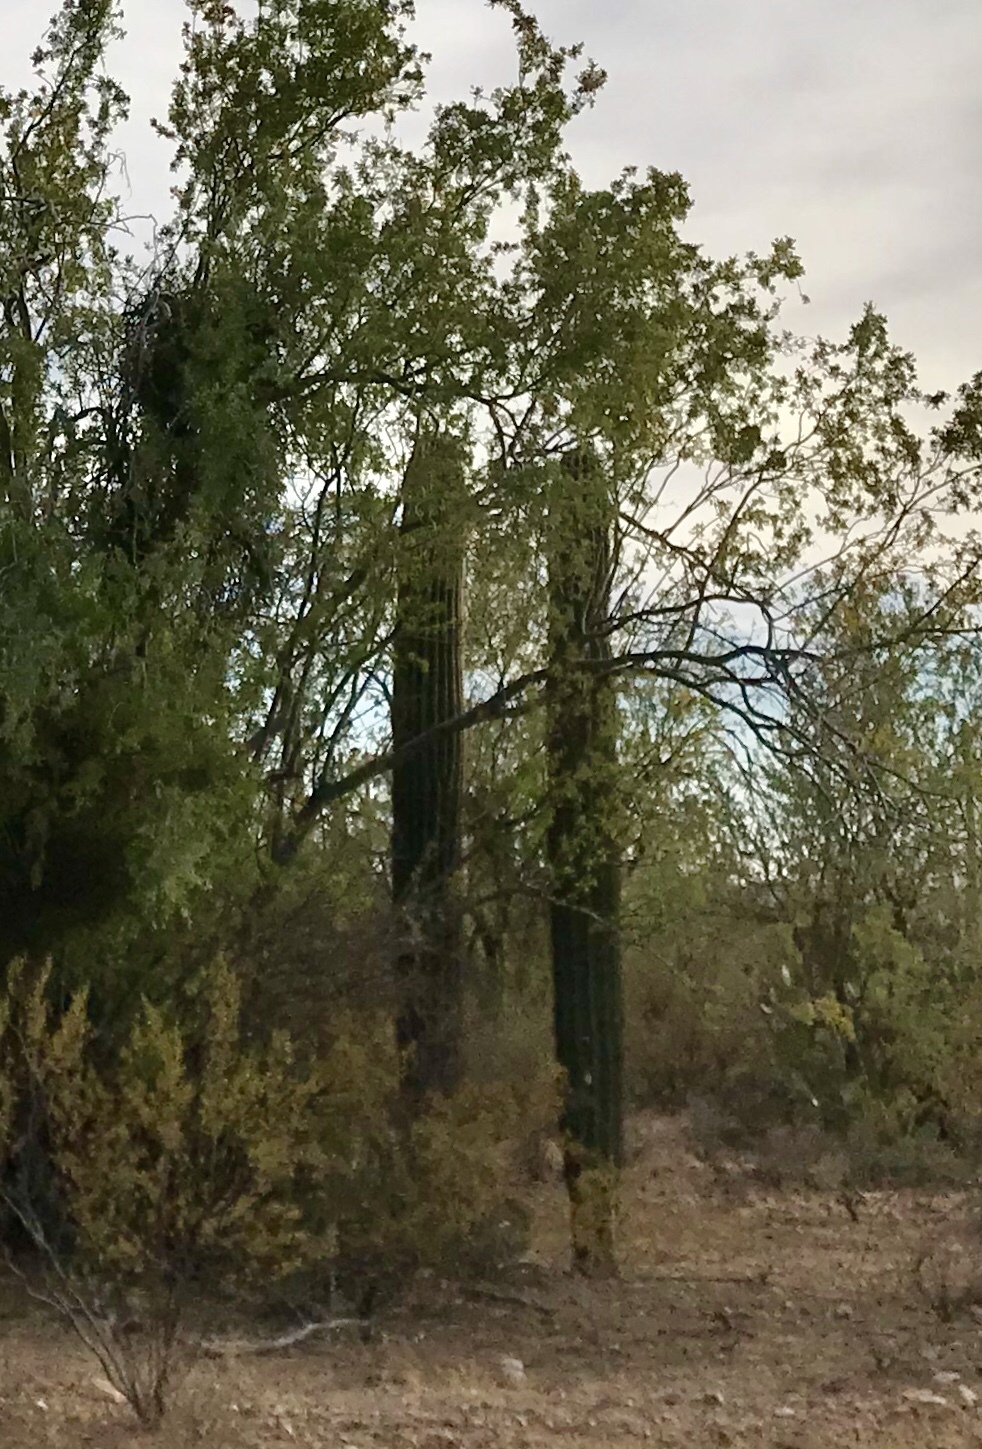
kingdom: Plantae
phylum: Tracheophyta
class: Magnoliopsida
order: Caryophyllales
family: Cactaceae
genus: Carnegiea
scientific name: Carnegiea gigantea
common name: Saguaro
